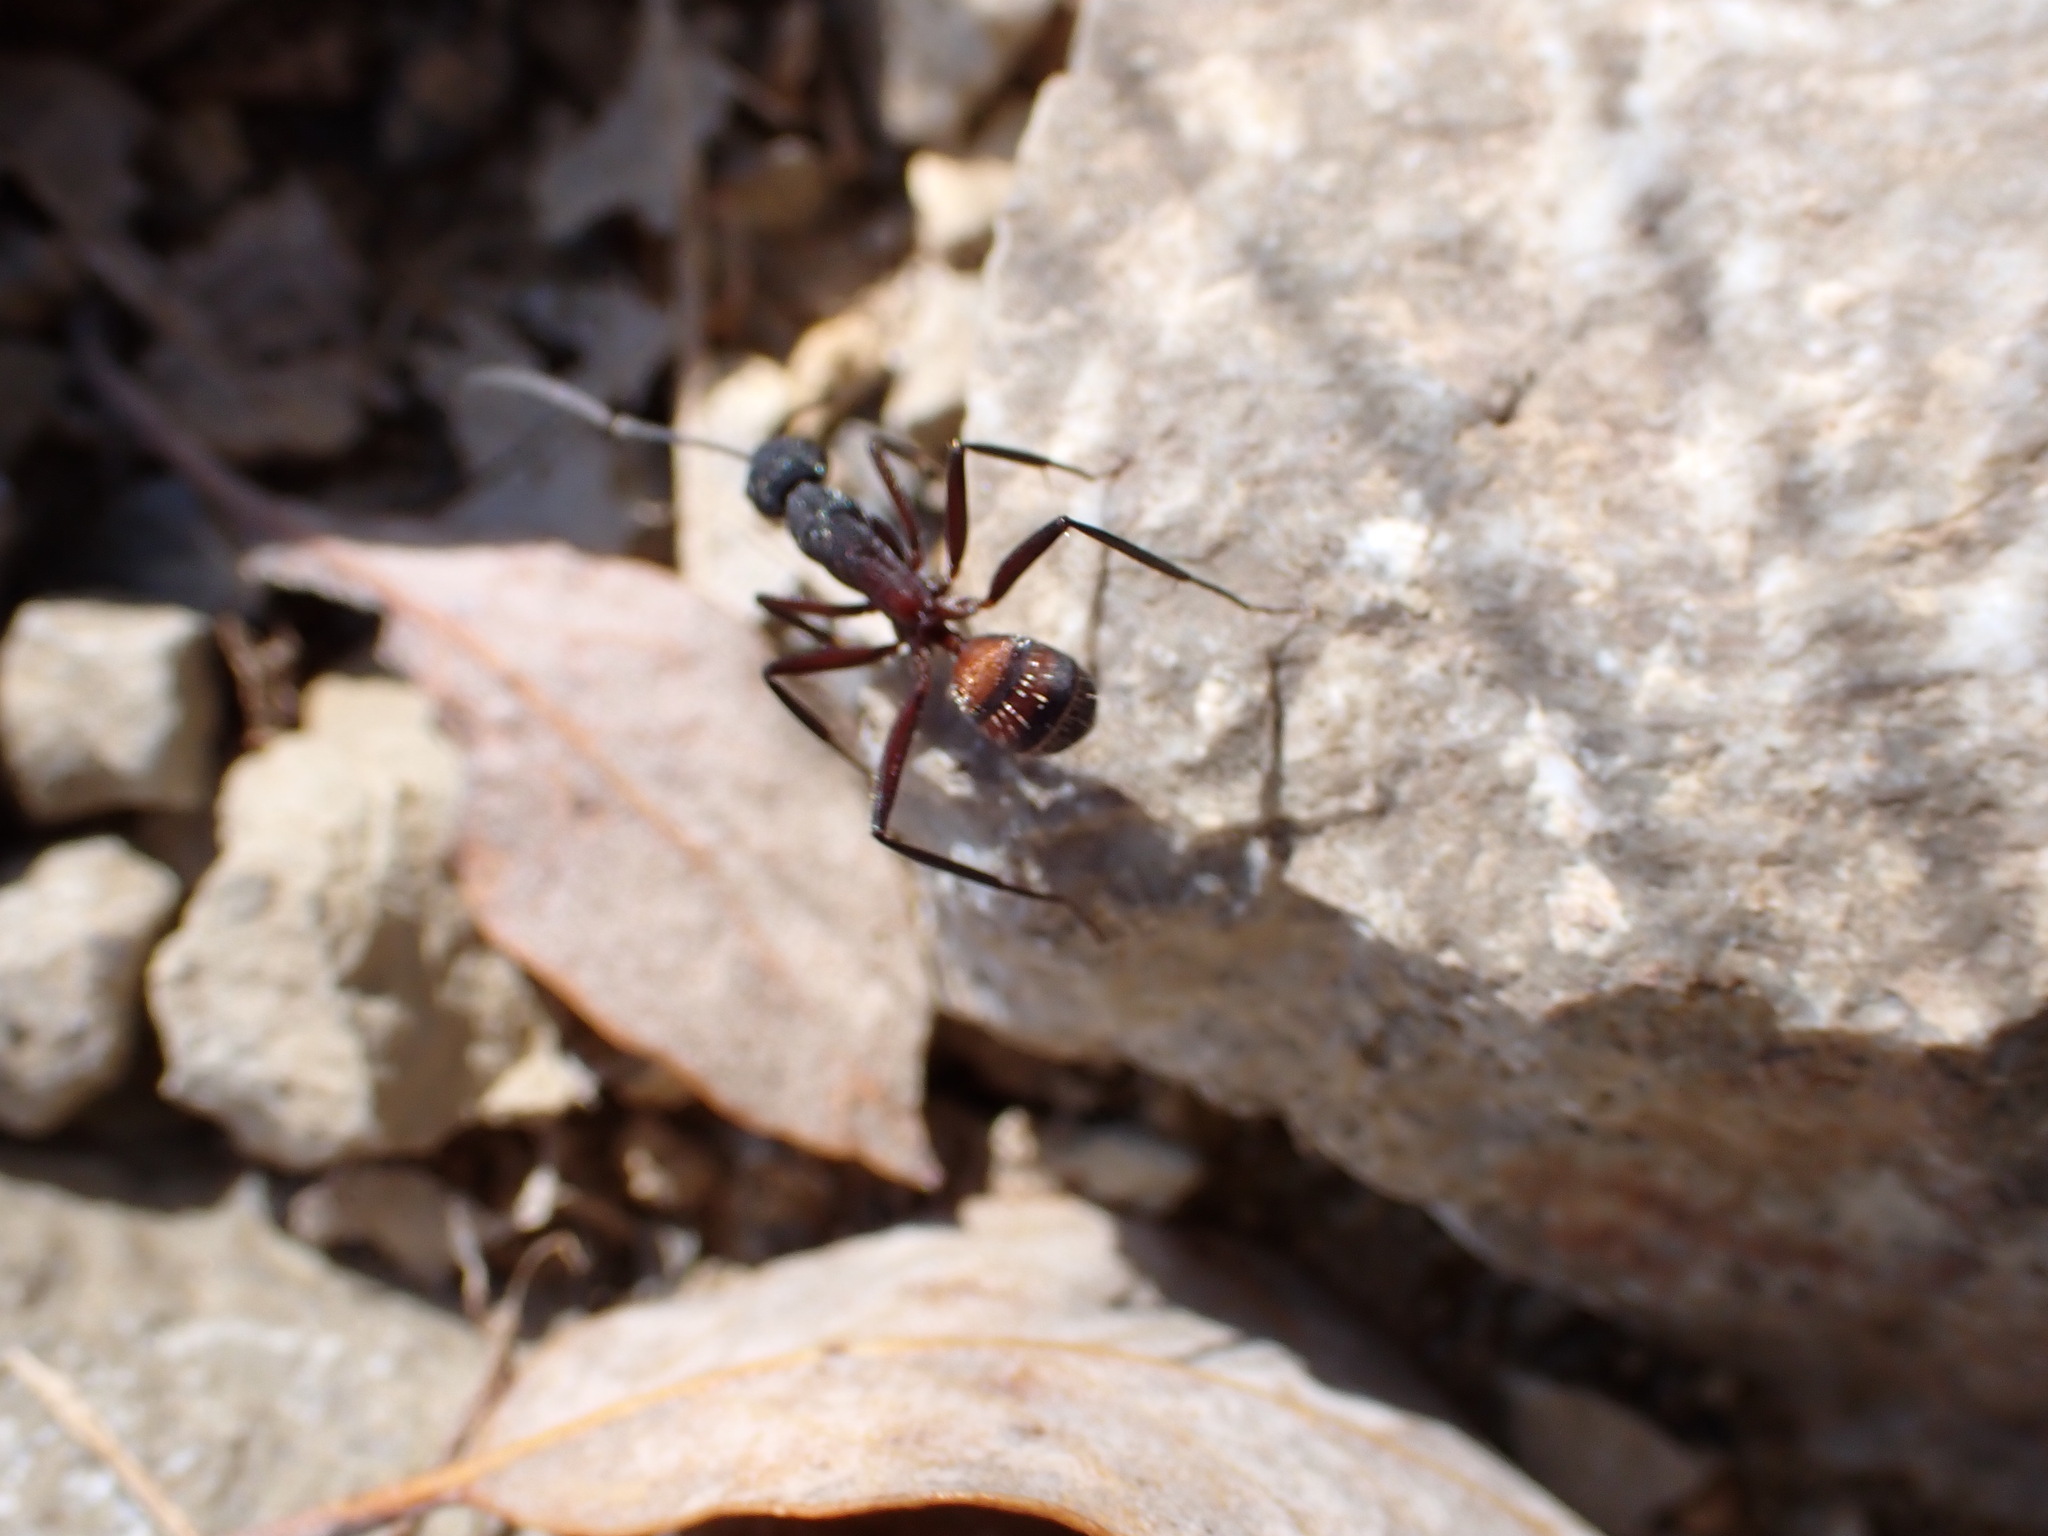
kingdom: Animalia
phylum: Arthropoda
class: Insecta
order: Hymenoptera
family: Formicidae
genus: Camponotus
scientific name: Camponotus cruentatus
